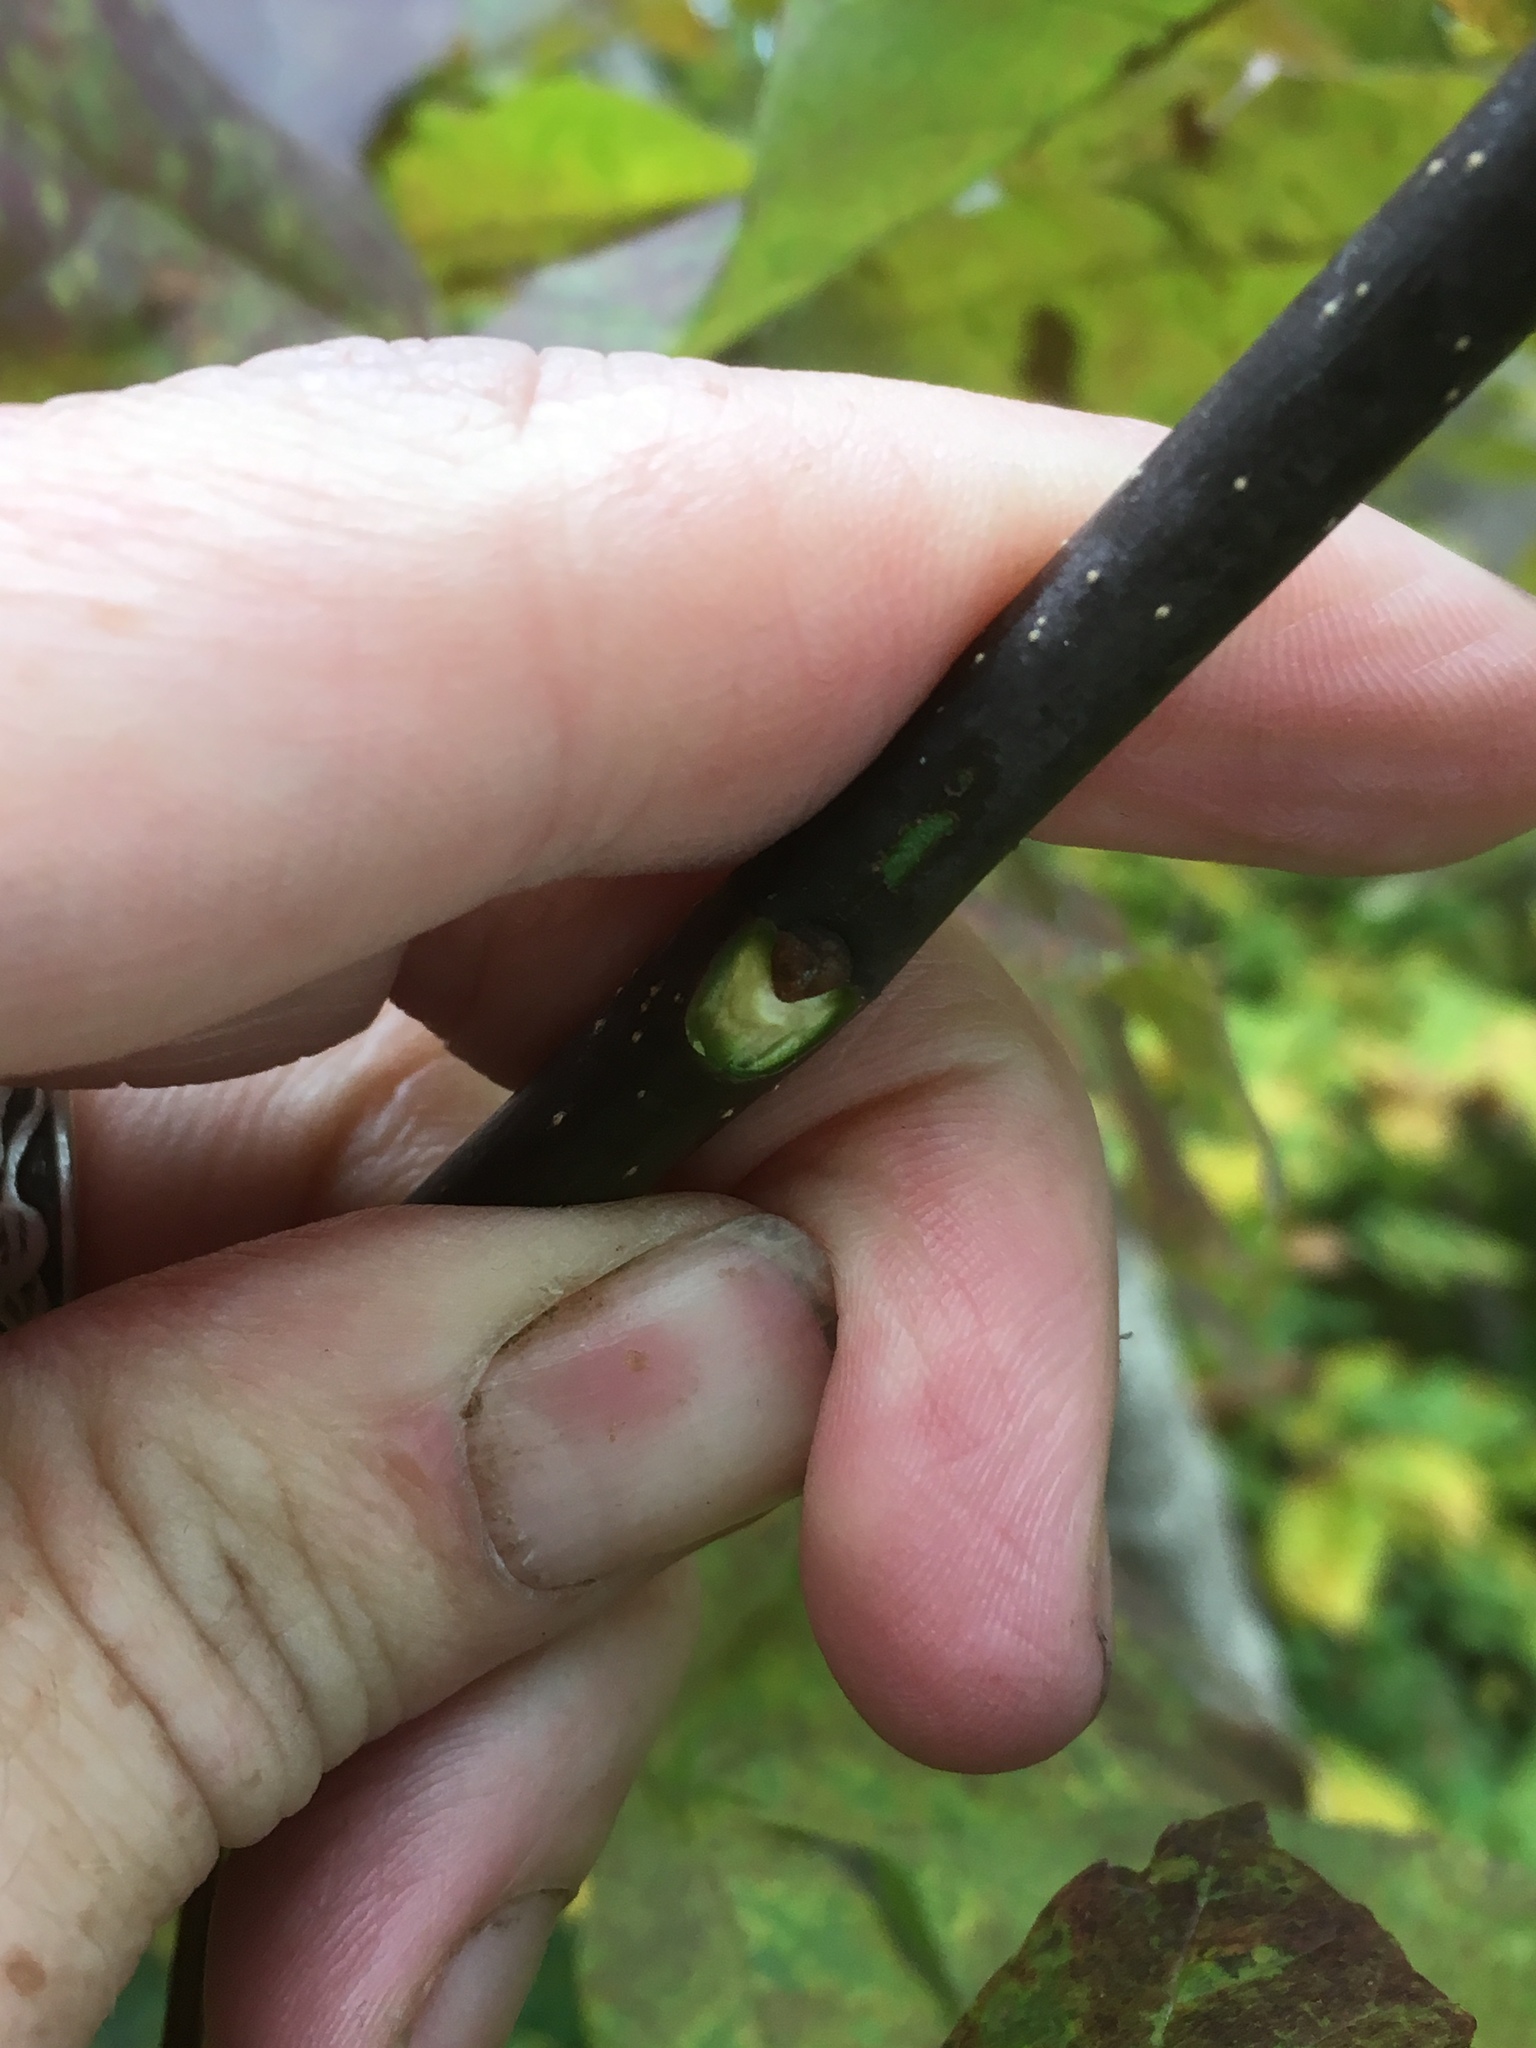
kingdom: Plantae
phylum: Tracheophyta
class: Magnoliopsida
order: Lamiales
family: Oleaceae
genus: Fraxinus
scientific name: Fraxinus americana
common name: White ash
